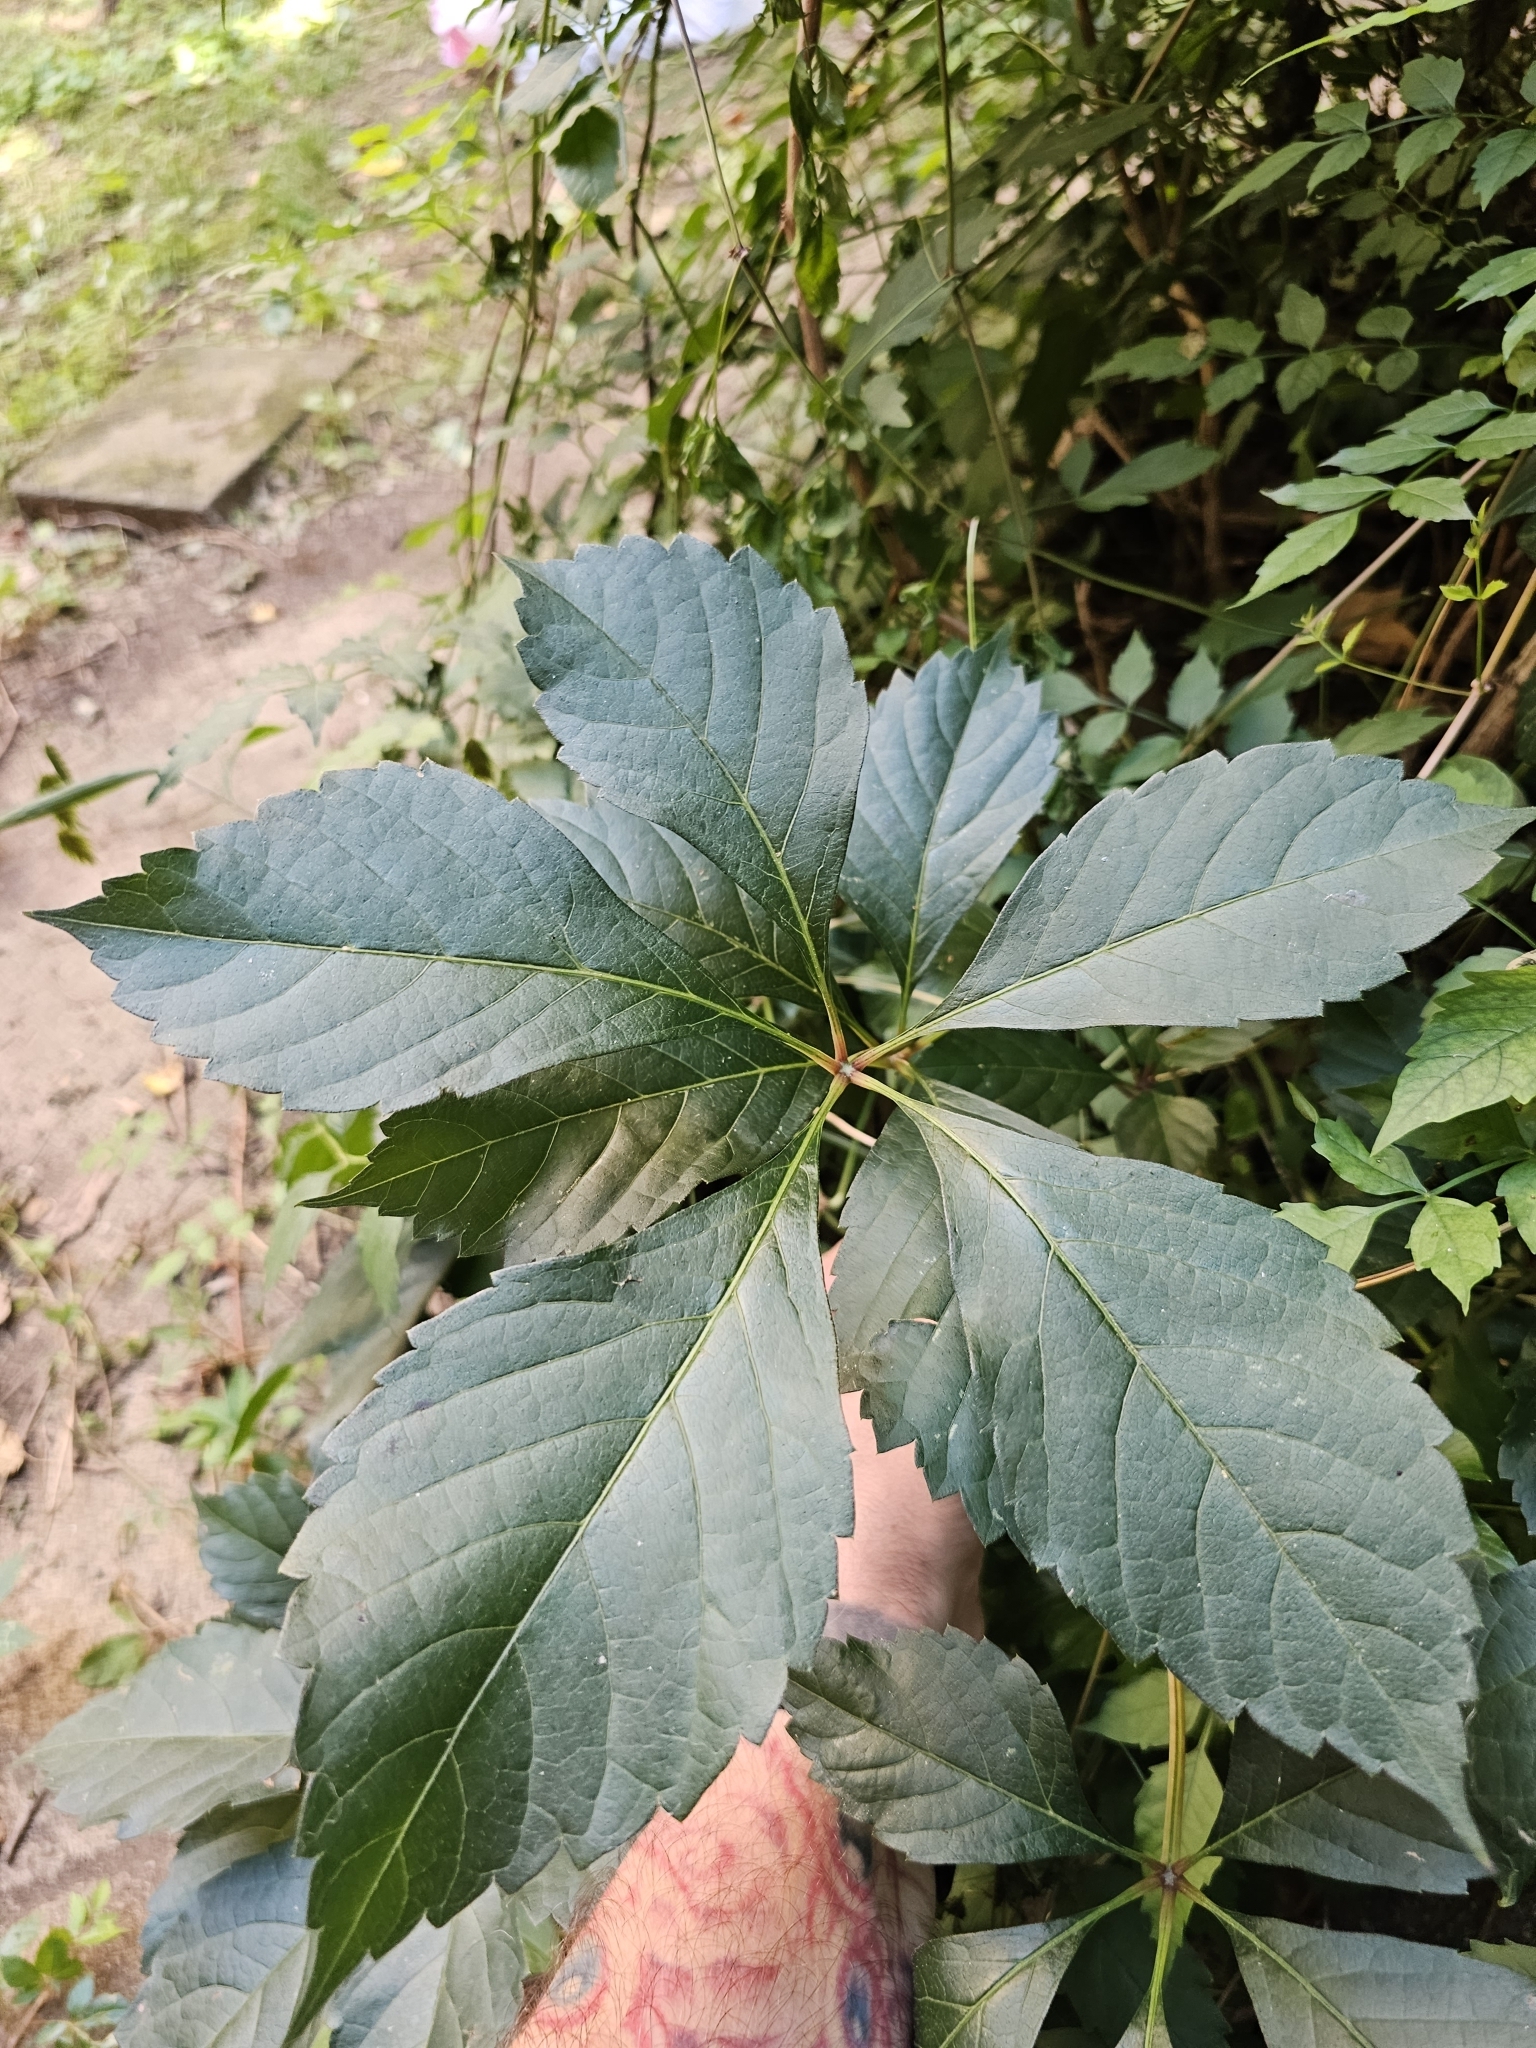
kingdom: Plantae
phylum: Tracheophyta
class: Magnoliopsida
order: Vitales
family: Vitaceae
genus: Parthenocissus
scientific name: Parthenocissus quinquefolia
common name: Virginia-creeper
